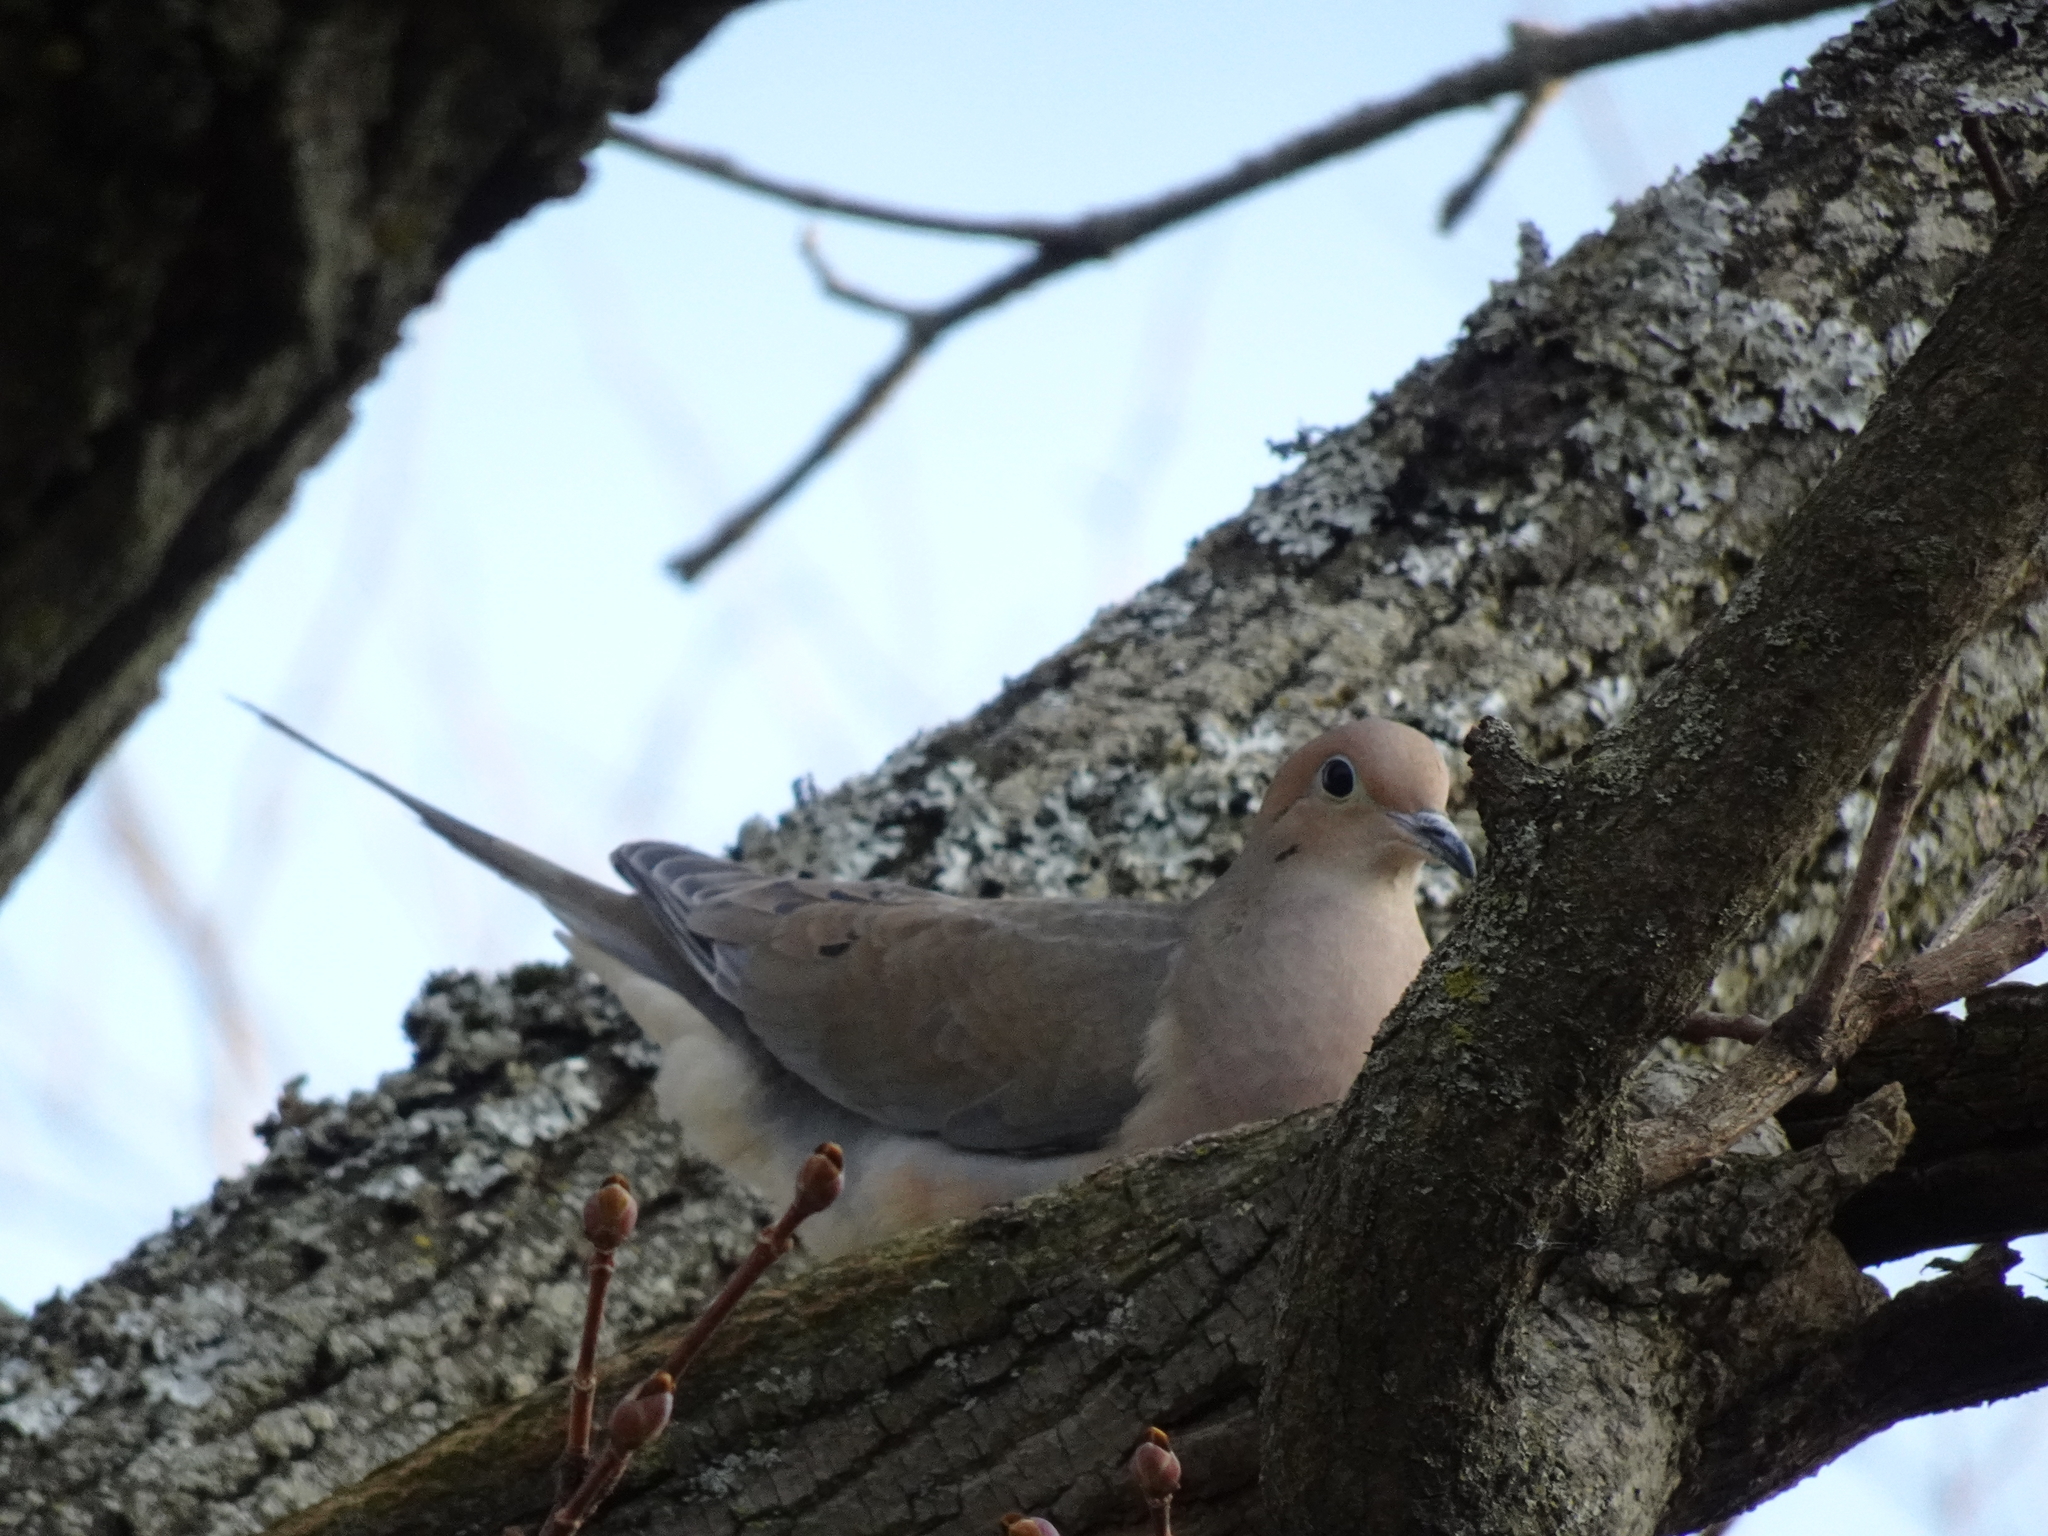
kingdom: Animalia
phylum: Chordata
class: Aves
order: Columbiformes
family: Columbidae
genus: Zenaida
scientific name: Zenaida macroura
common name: Mourning dove
